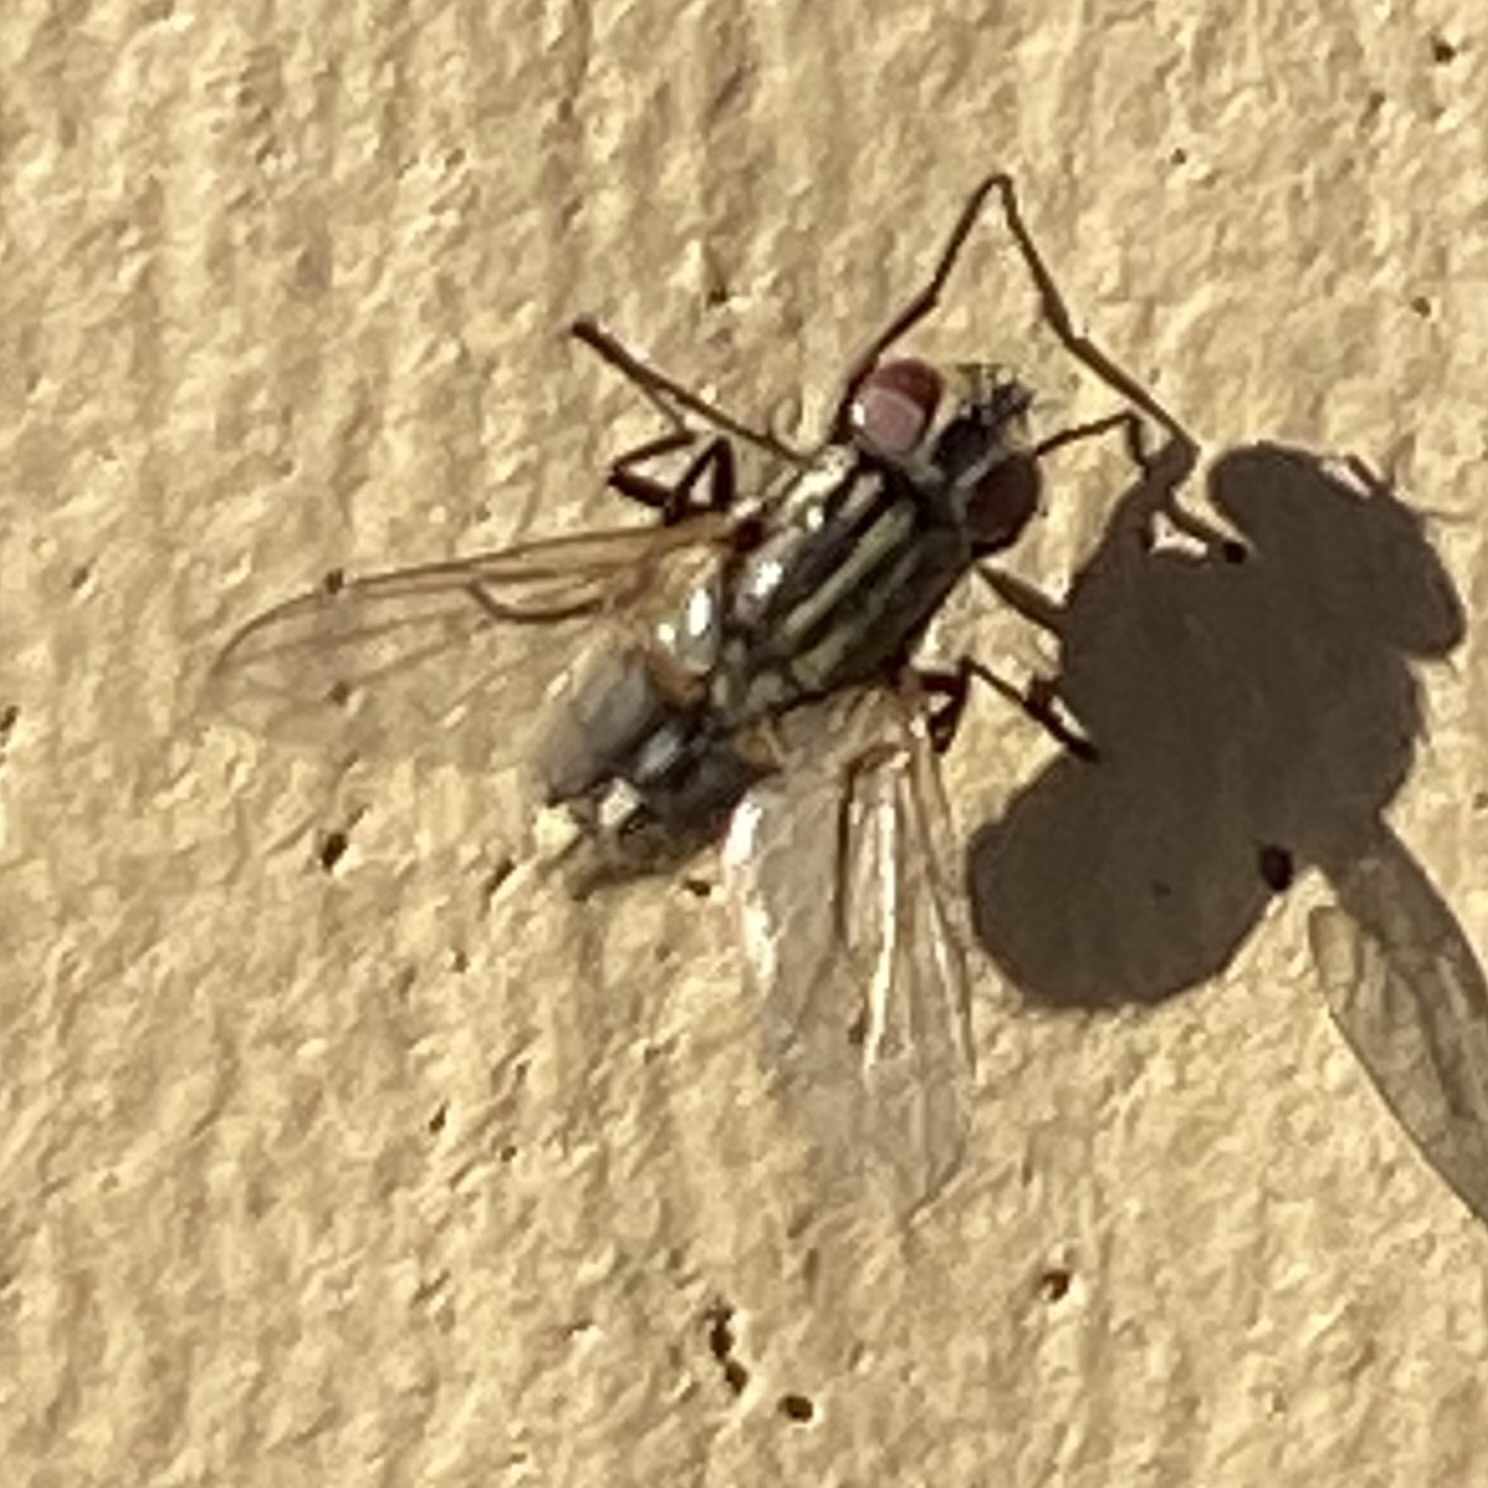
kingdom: Animalia
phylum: Arthropoda
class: Insecta
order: Diptera
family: Muscidae
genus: Musca
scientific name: Musca domestica
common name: House fly
